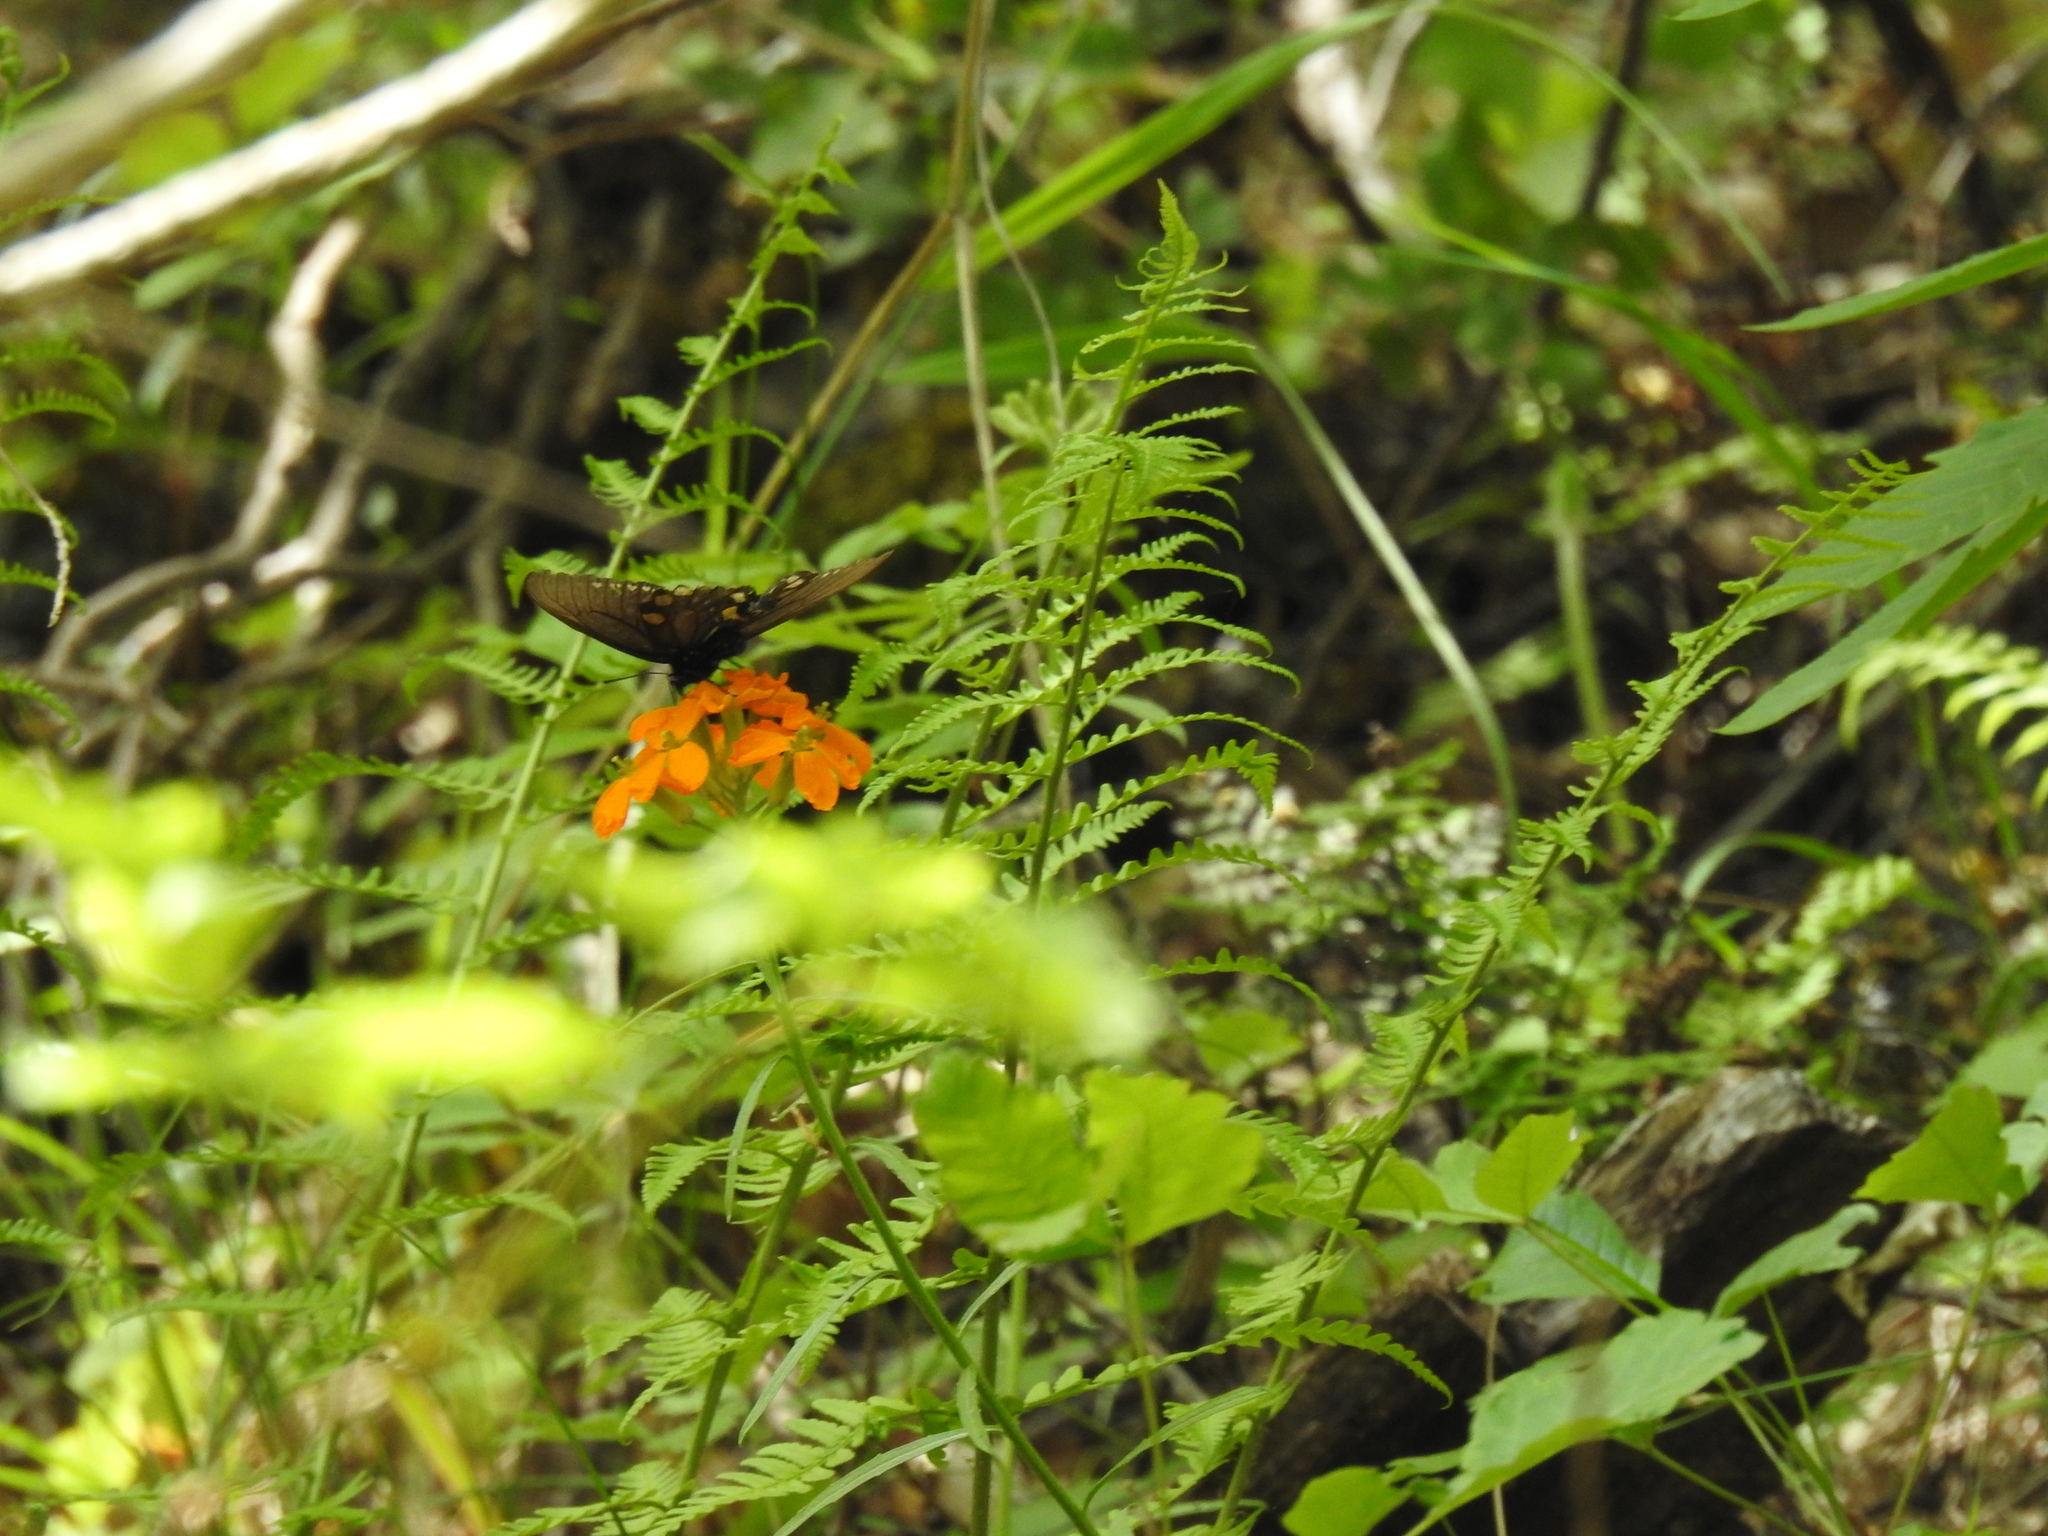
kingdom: Animalia
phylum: Arthropoda
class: Insecta
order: Lepidoptera
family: Papilionidae
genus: Battus
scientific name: Battus philenor
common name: Pipevine swallowtail
